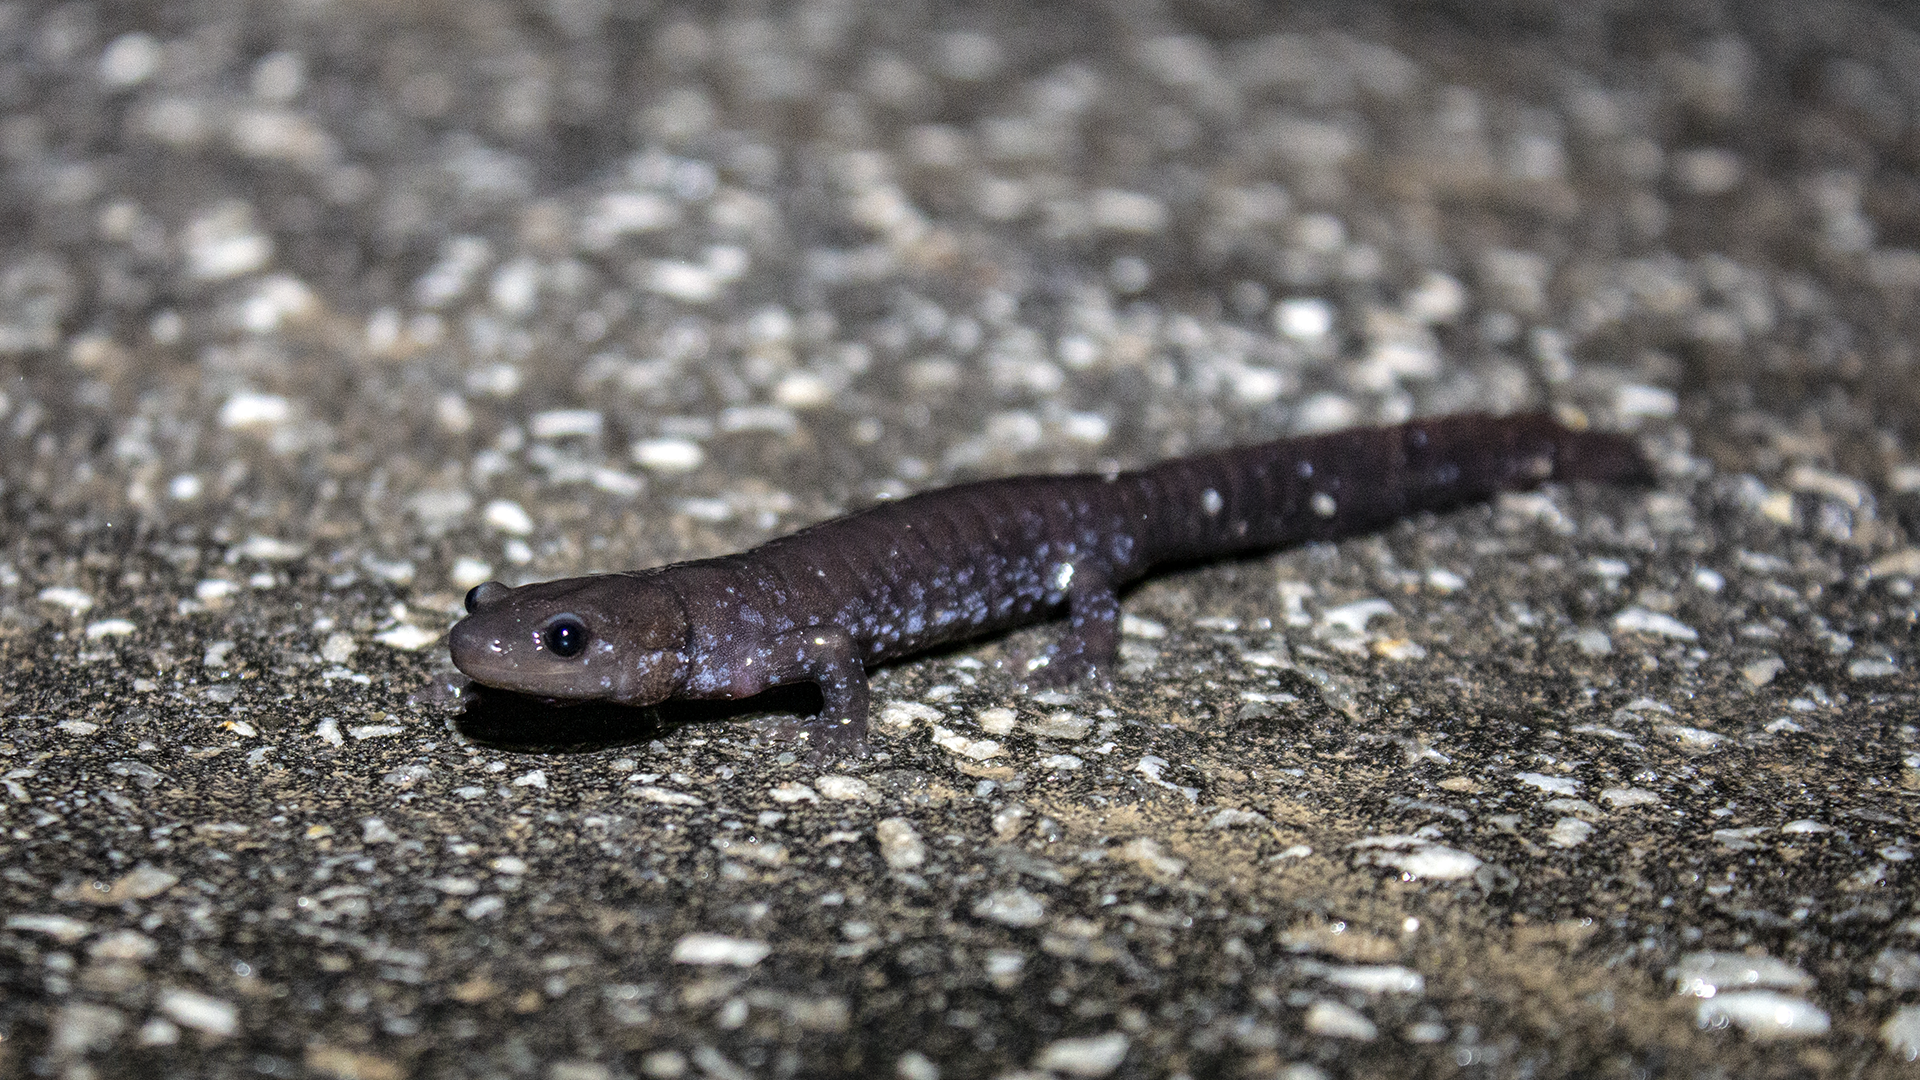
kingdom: Animalia
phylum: Chordata
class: Amphibia
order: Caudata
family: Ambystomatidae
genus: Ambystoma
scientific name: Ambystoma laterale
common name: Blue-spotted salamander
